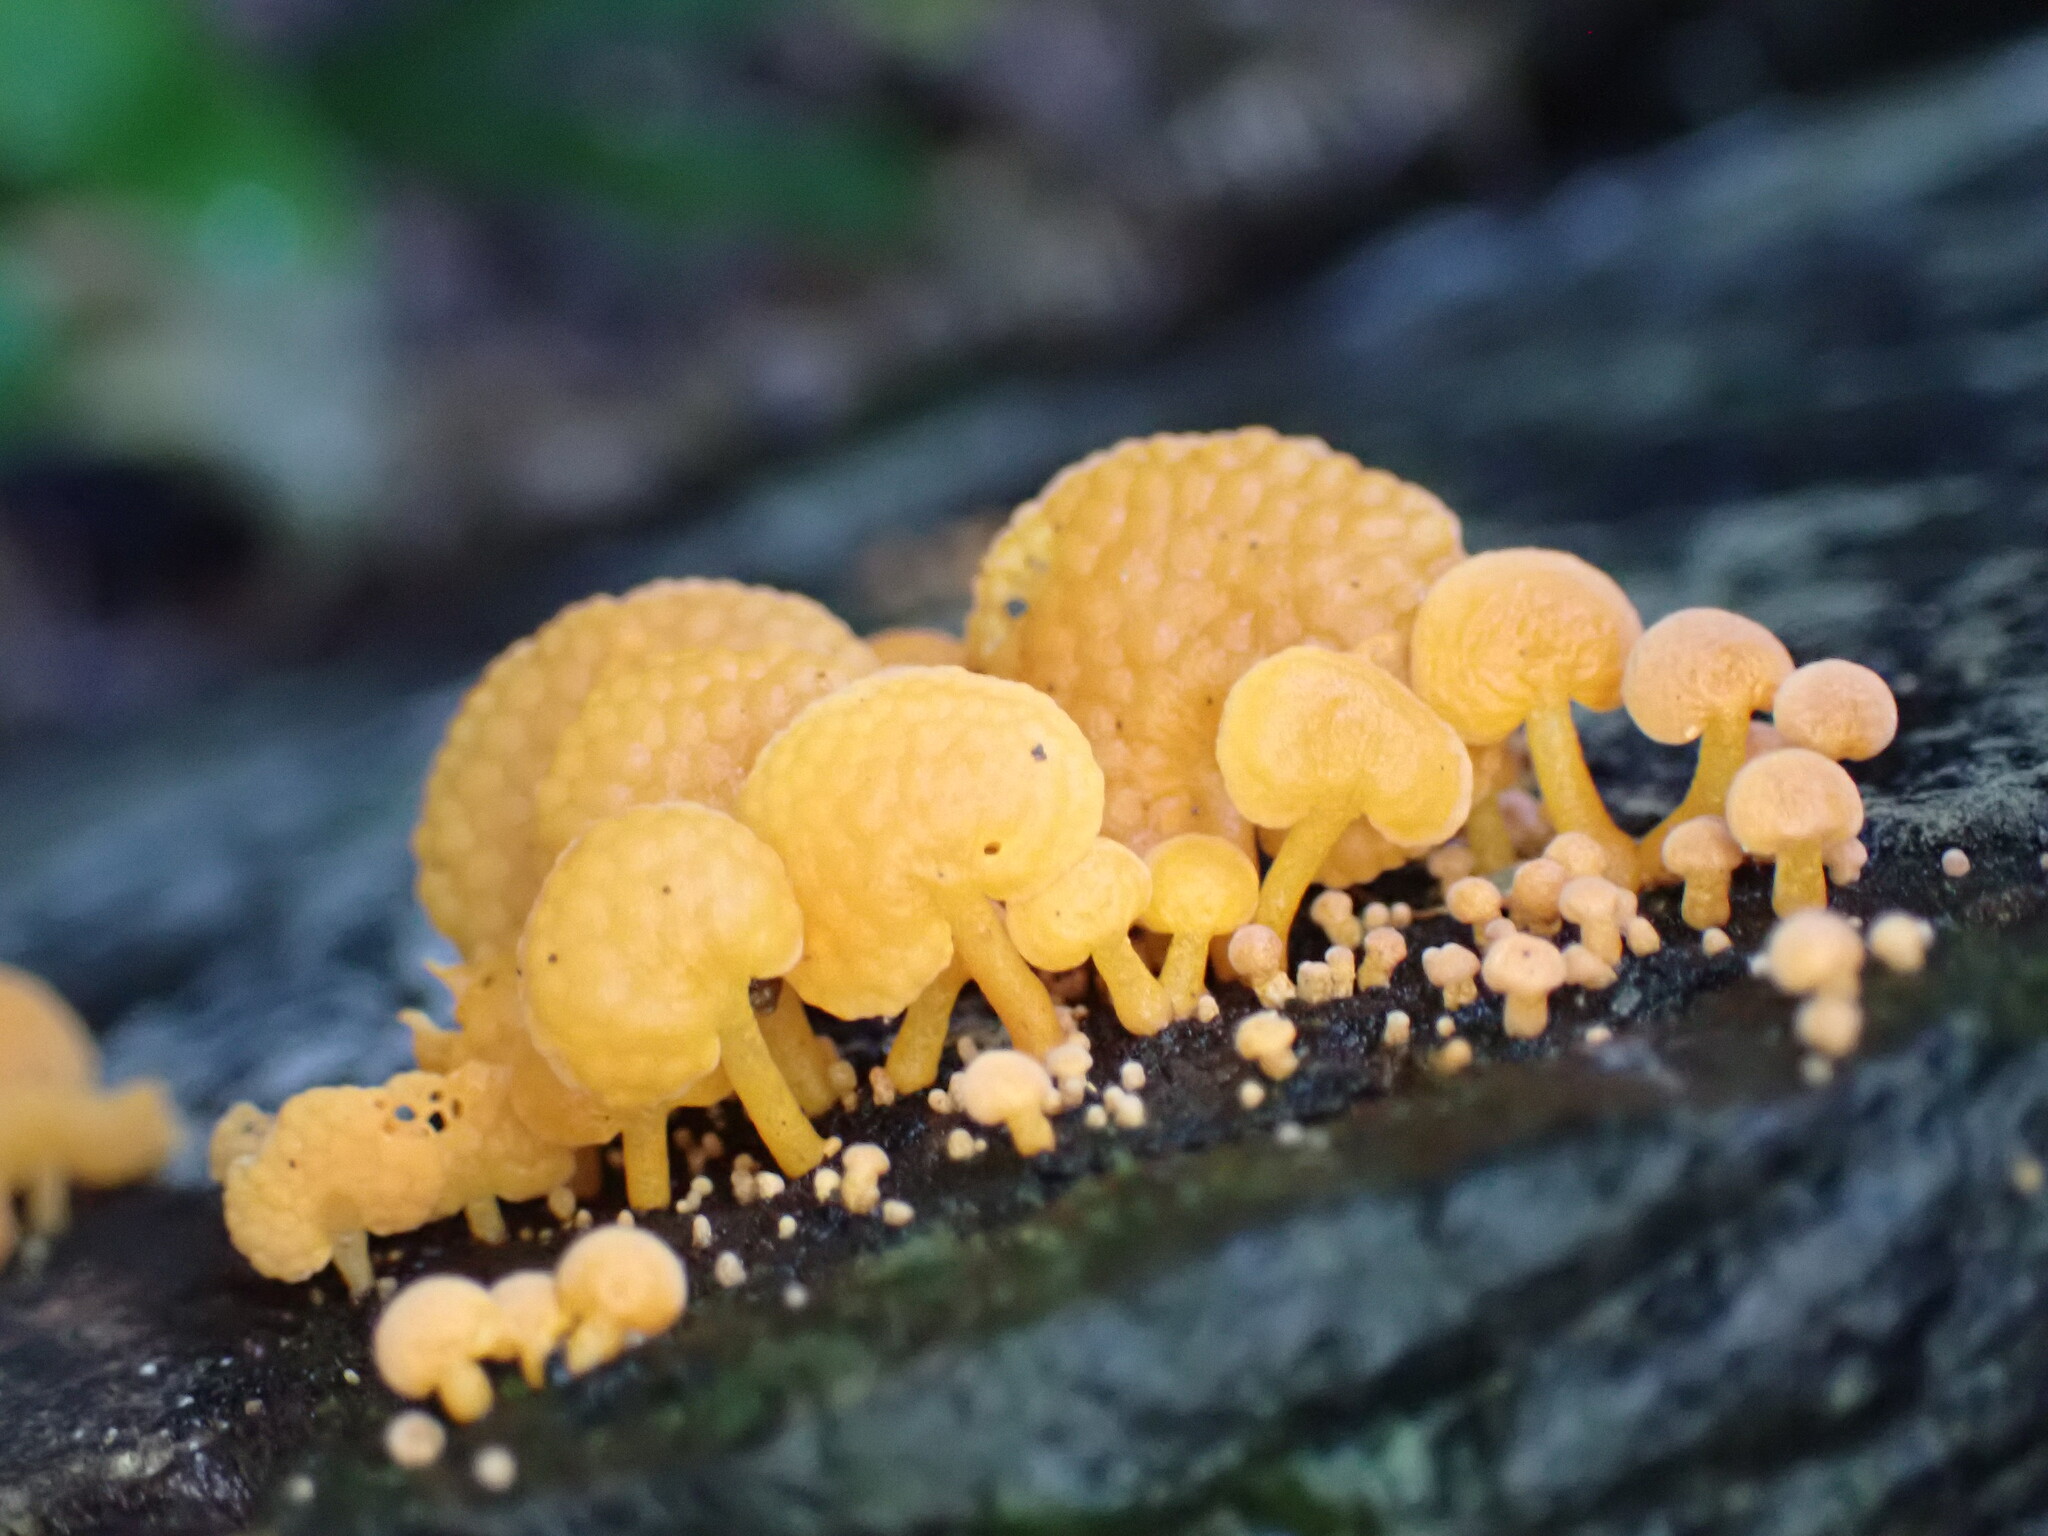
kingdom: Fungi
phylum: Basidiomycota
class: Agaricomycetes
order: Agaricales
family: Mycenaceae
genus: Favolaschia
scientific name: Favolaschia claudopus
